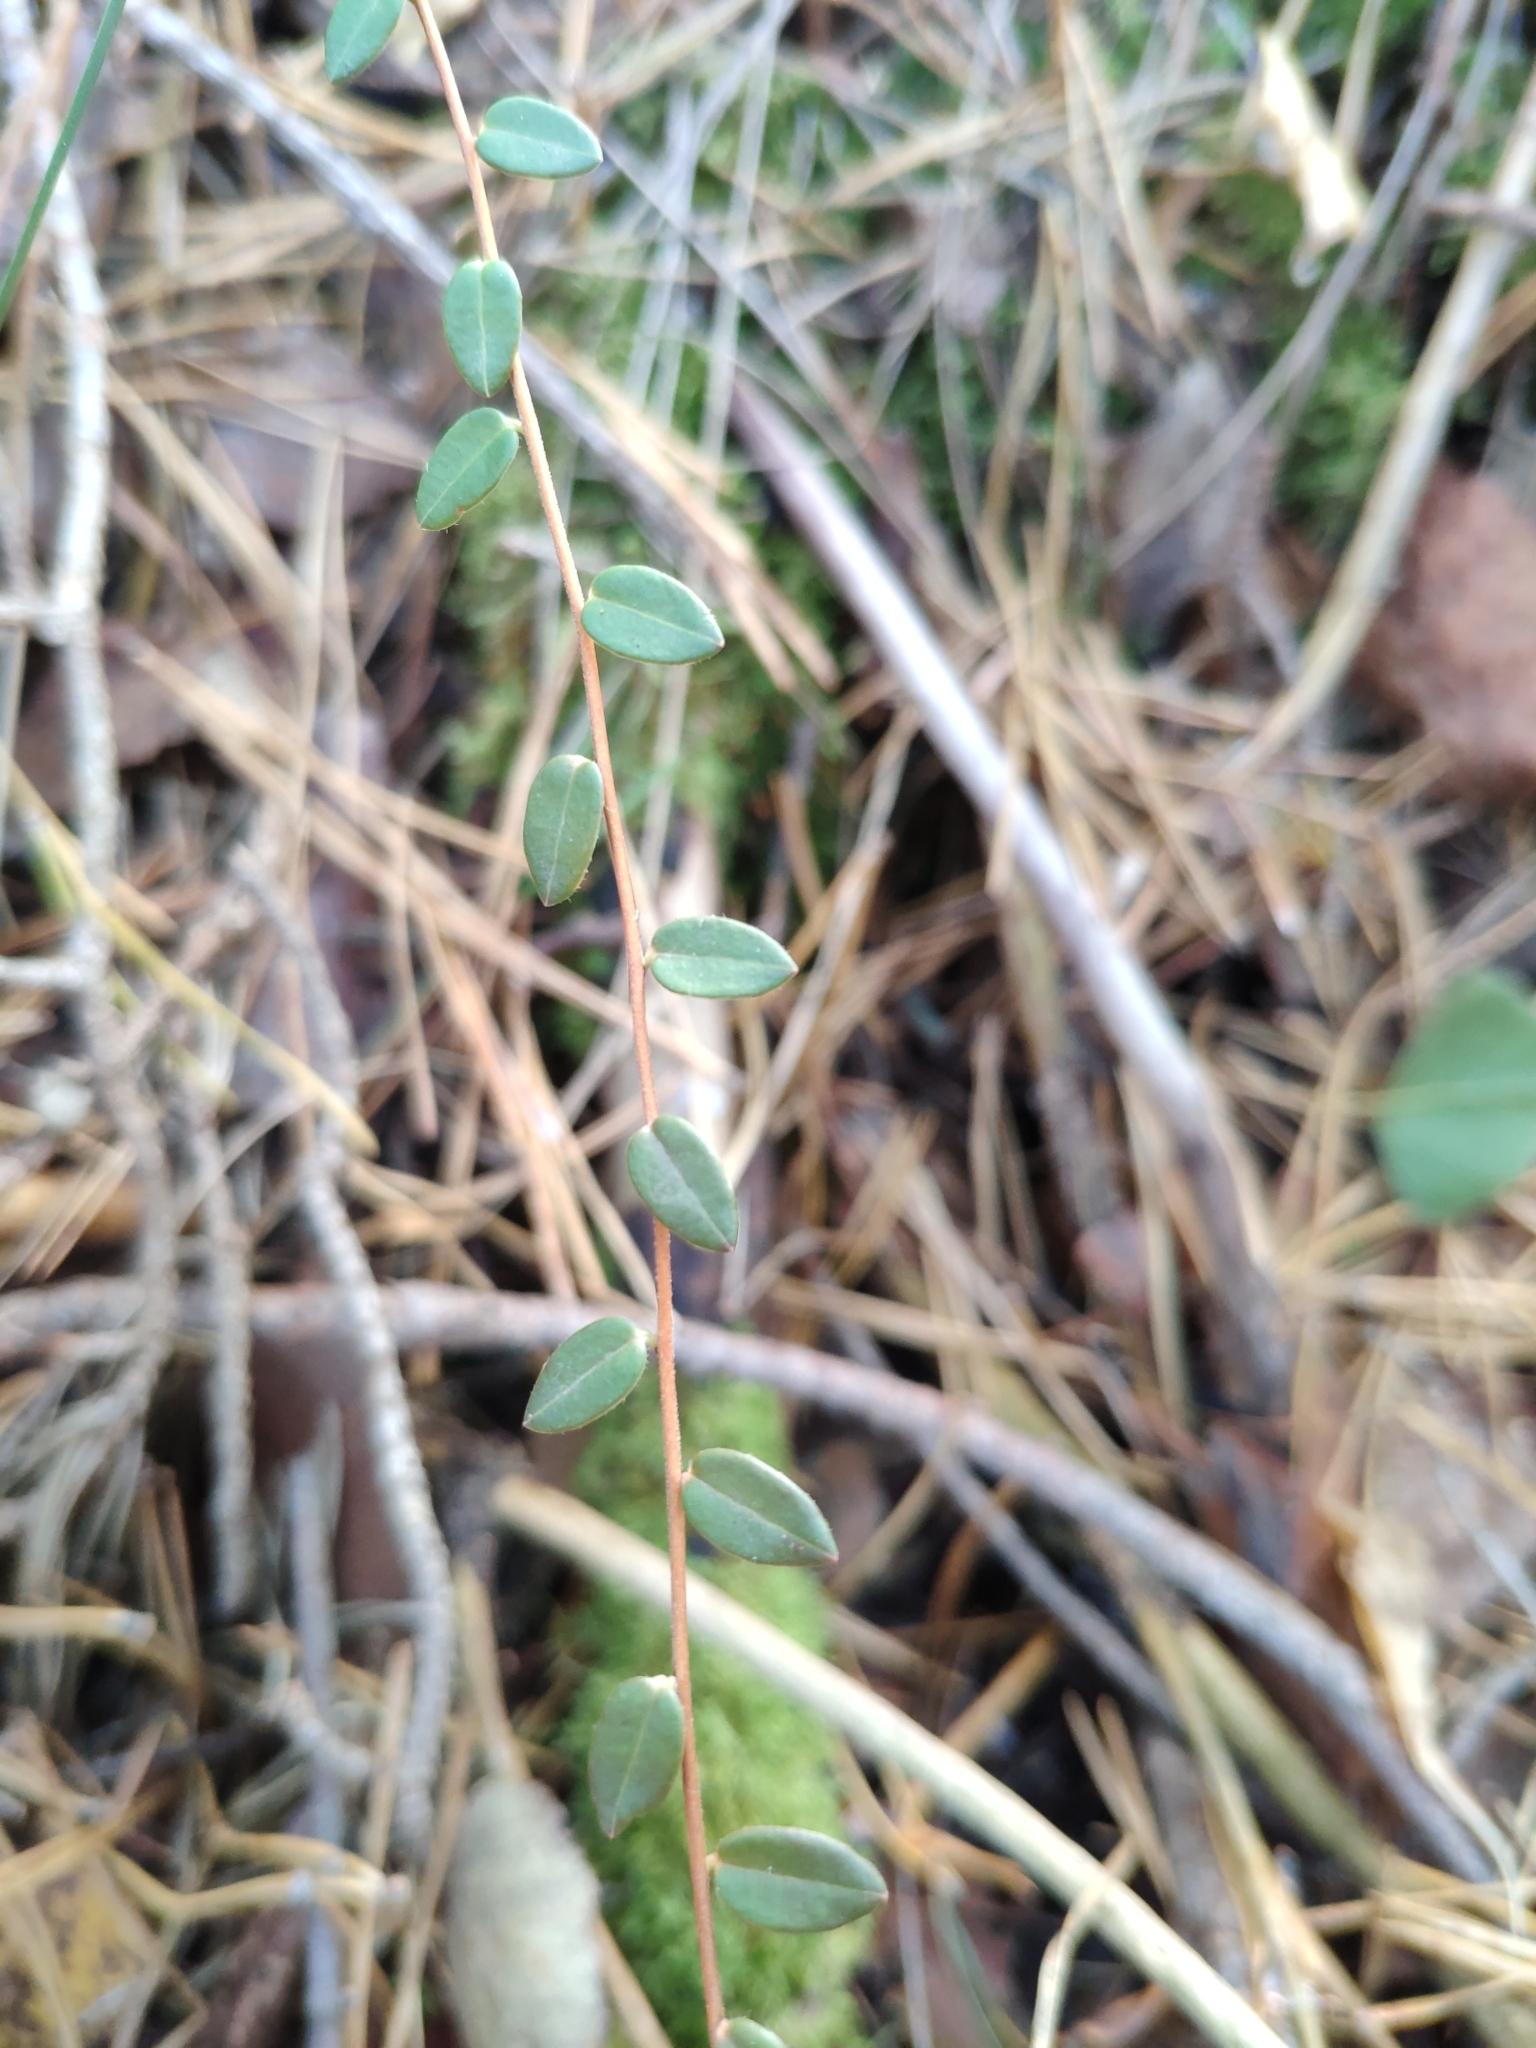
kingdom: Plantae
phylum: Tracheophyta
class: Magnoliopsida
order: Ericales
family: Ericaceae
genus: Vaccinium
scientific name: Vaccinium oxycoccos
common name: Cranberry
